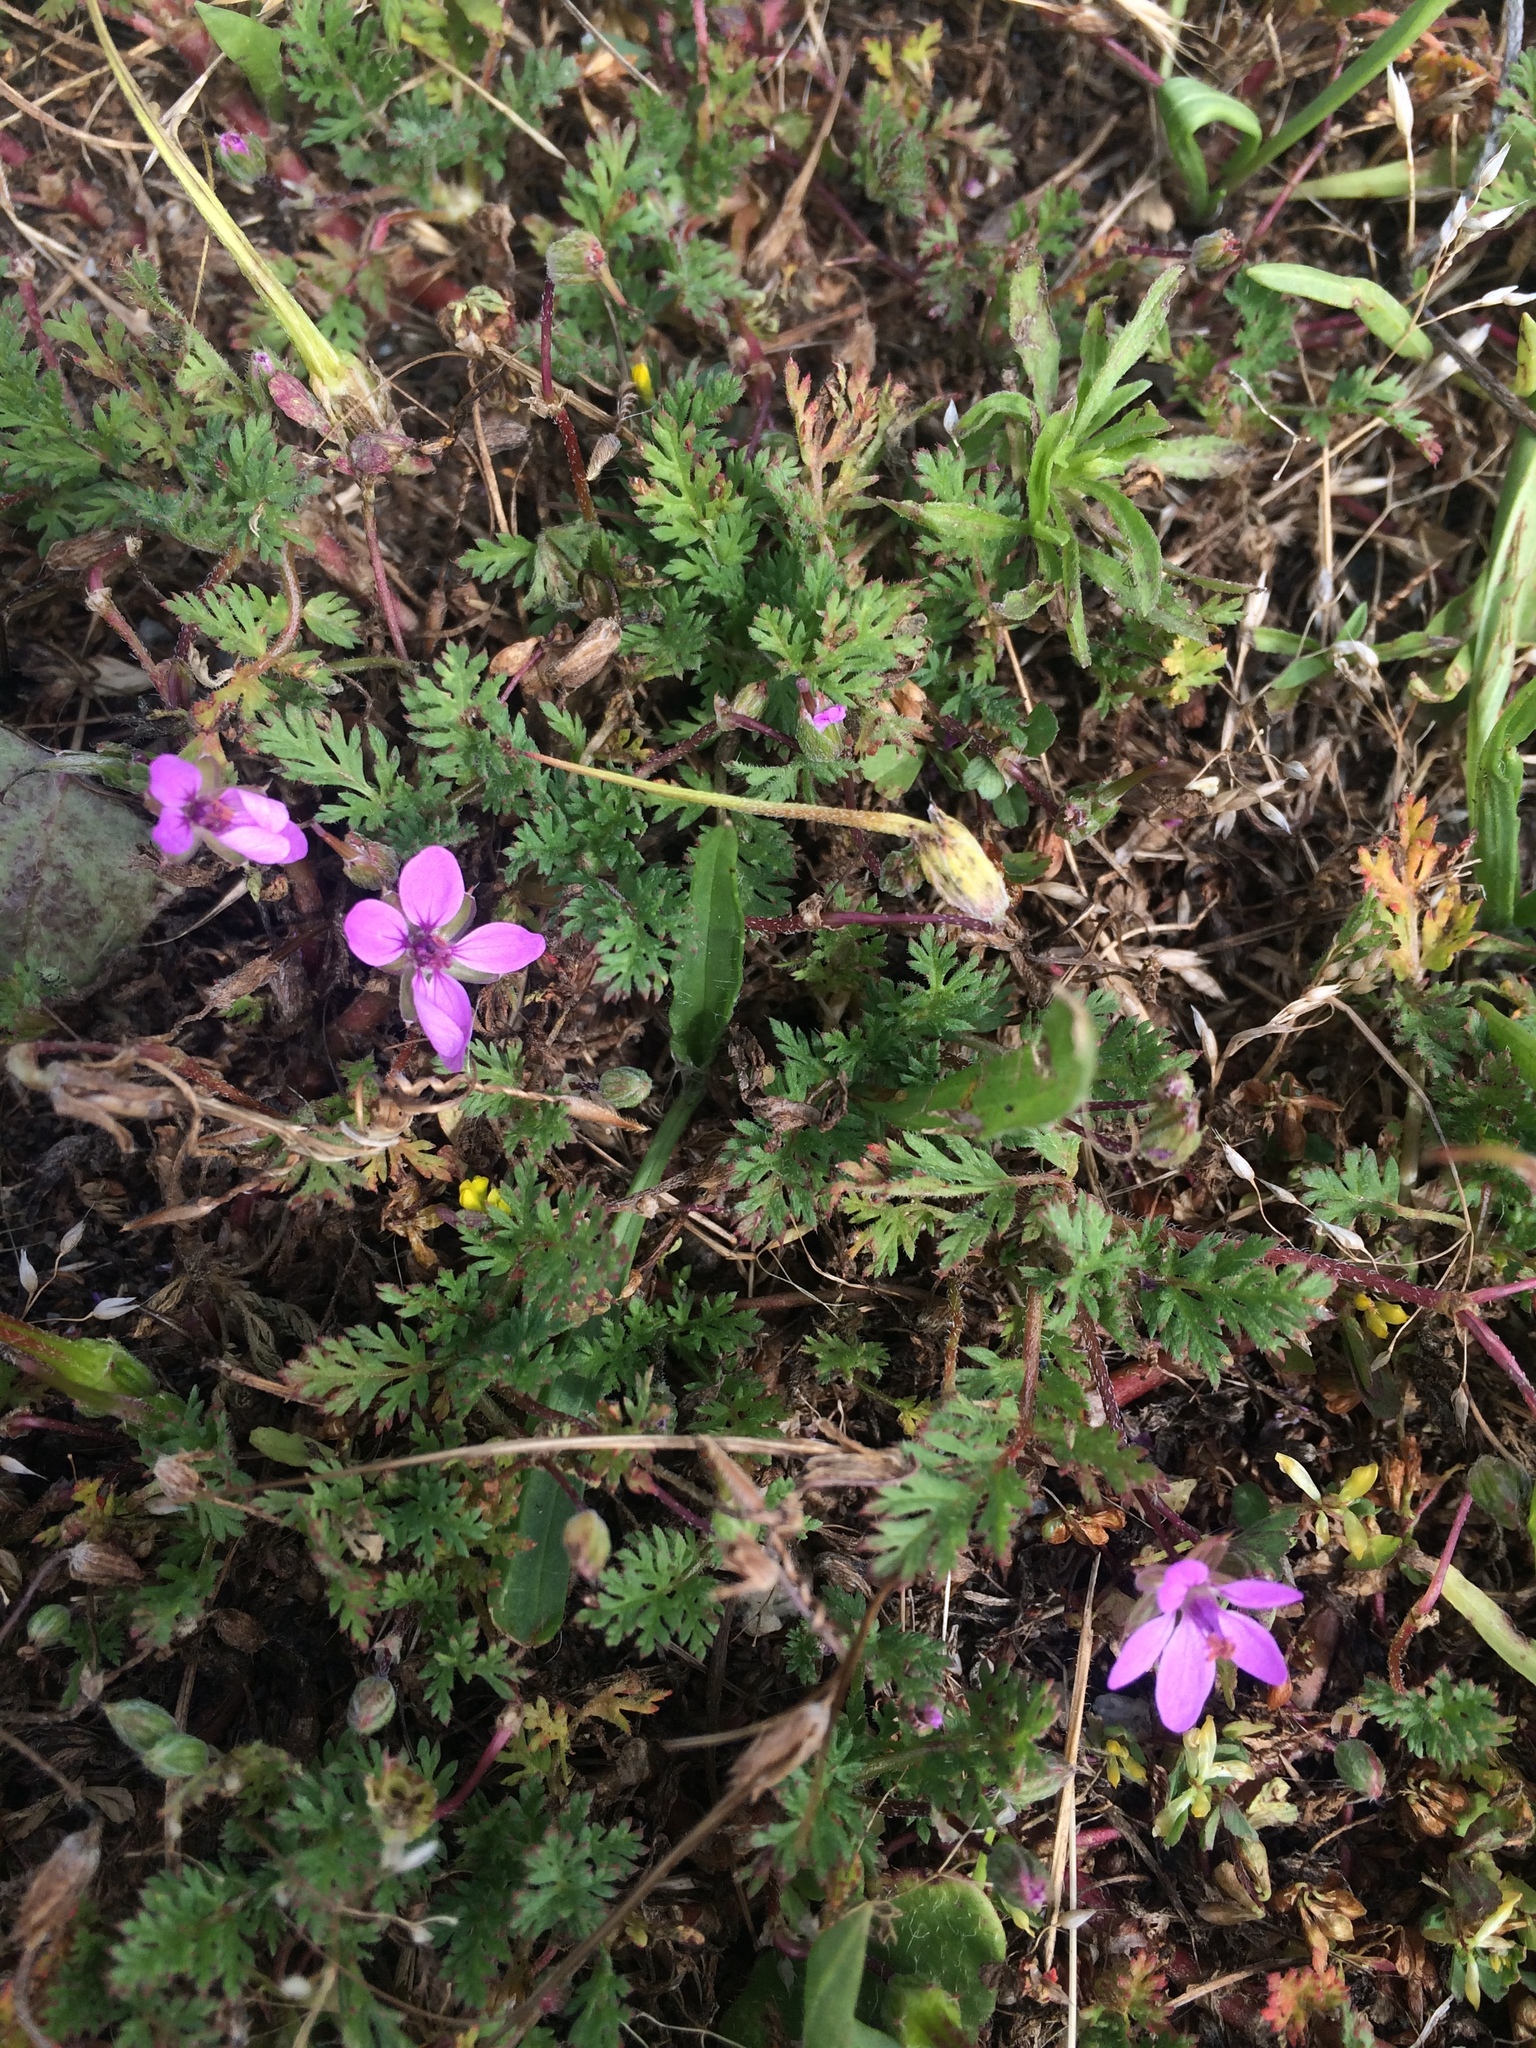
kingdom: Plantae
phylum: Tracheophyta
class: Magnoliopsida
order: Geraniales
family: Geraniaceae
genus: Erodium
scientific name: Erodium cicutarium
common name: Common stork's-bill
